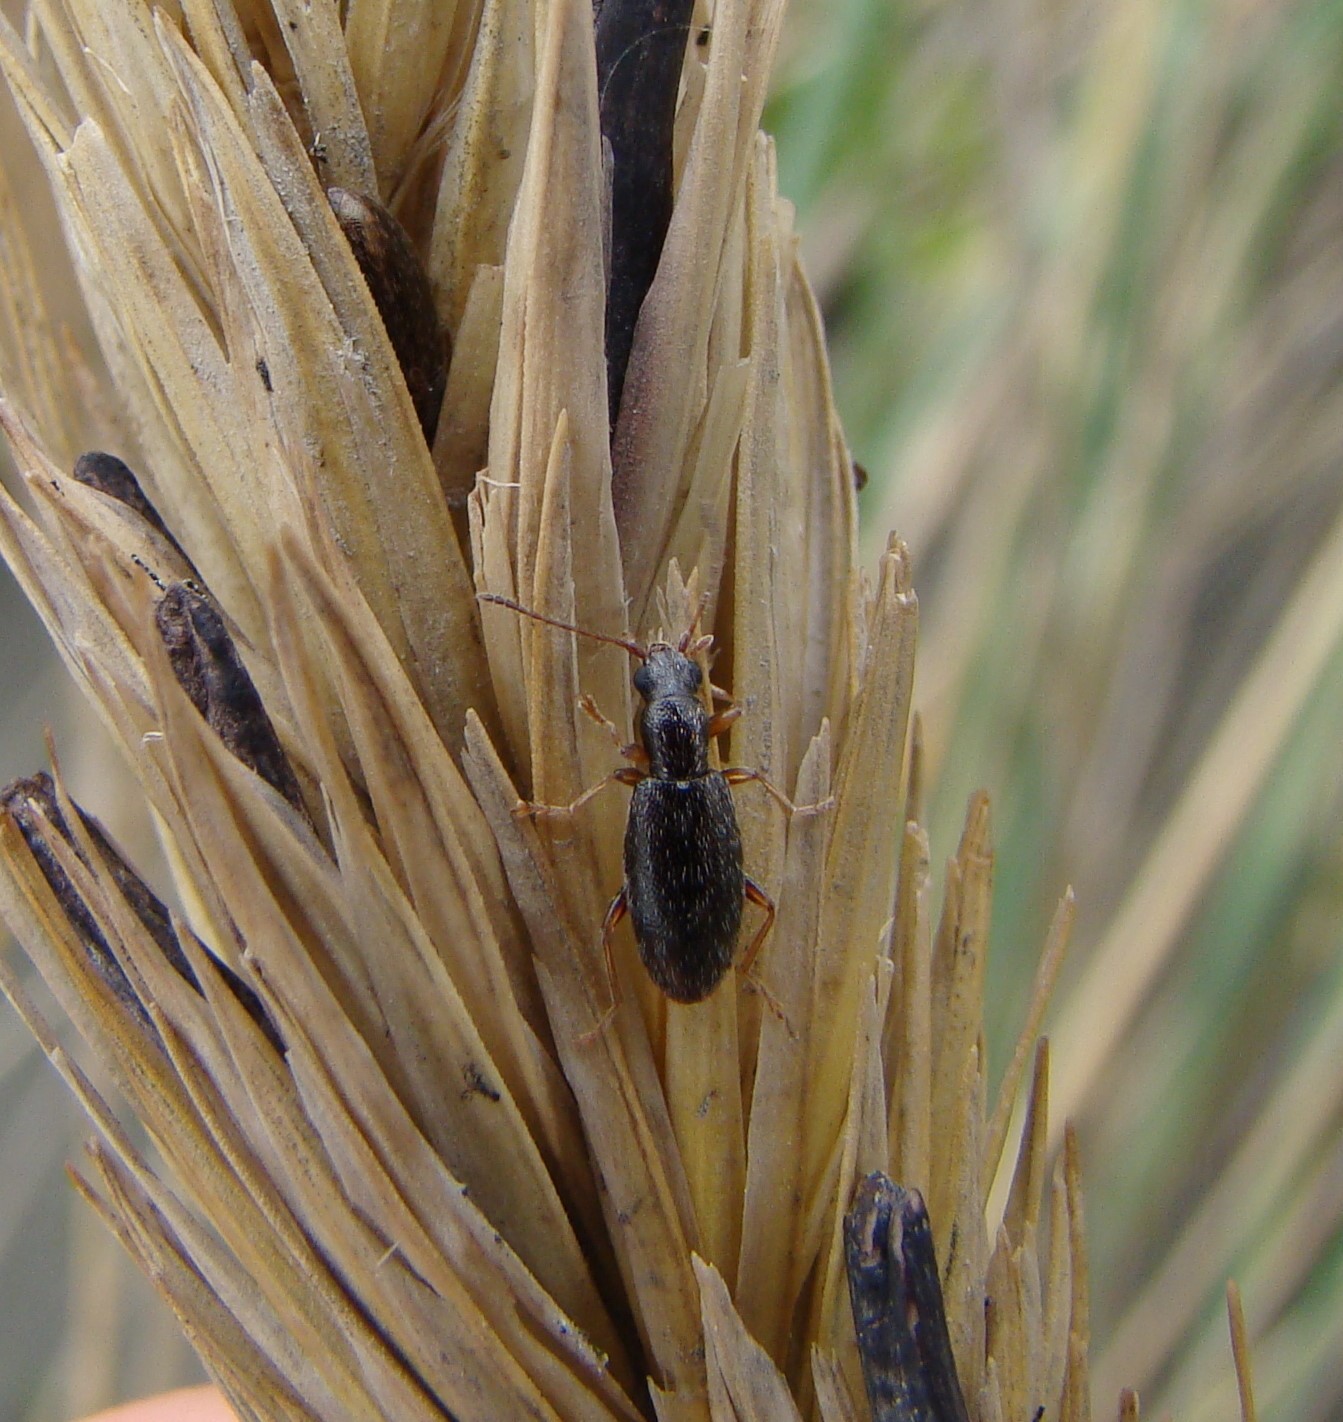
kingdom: Animalia
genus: Lagrioda
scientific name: Lagrioda brounii
